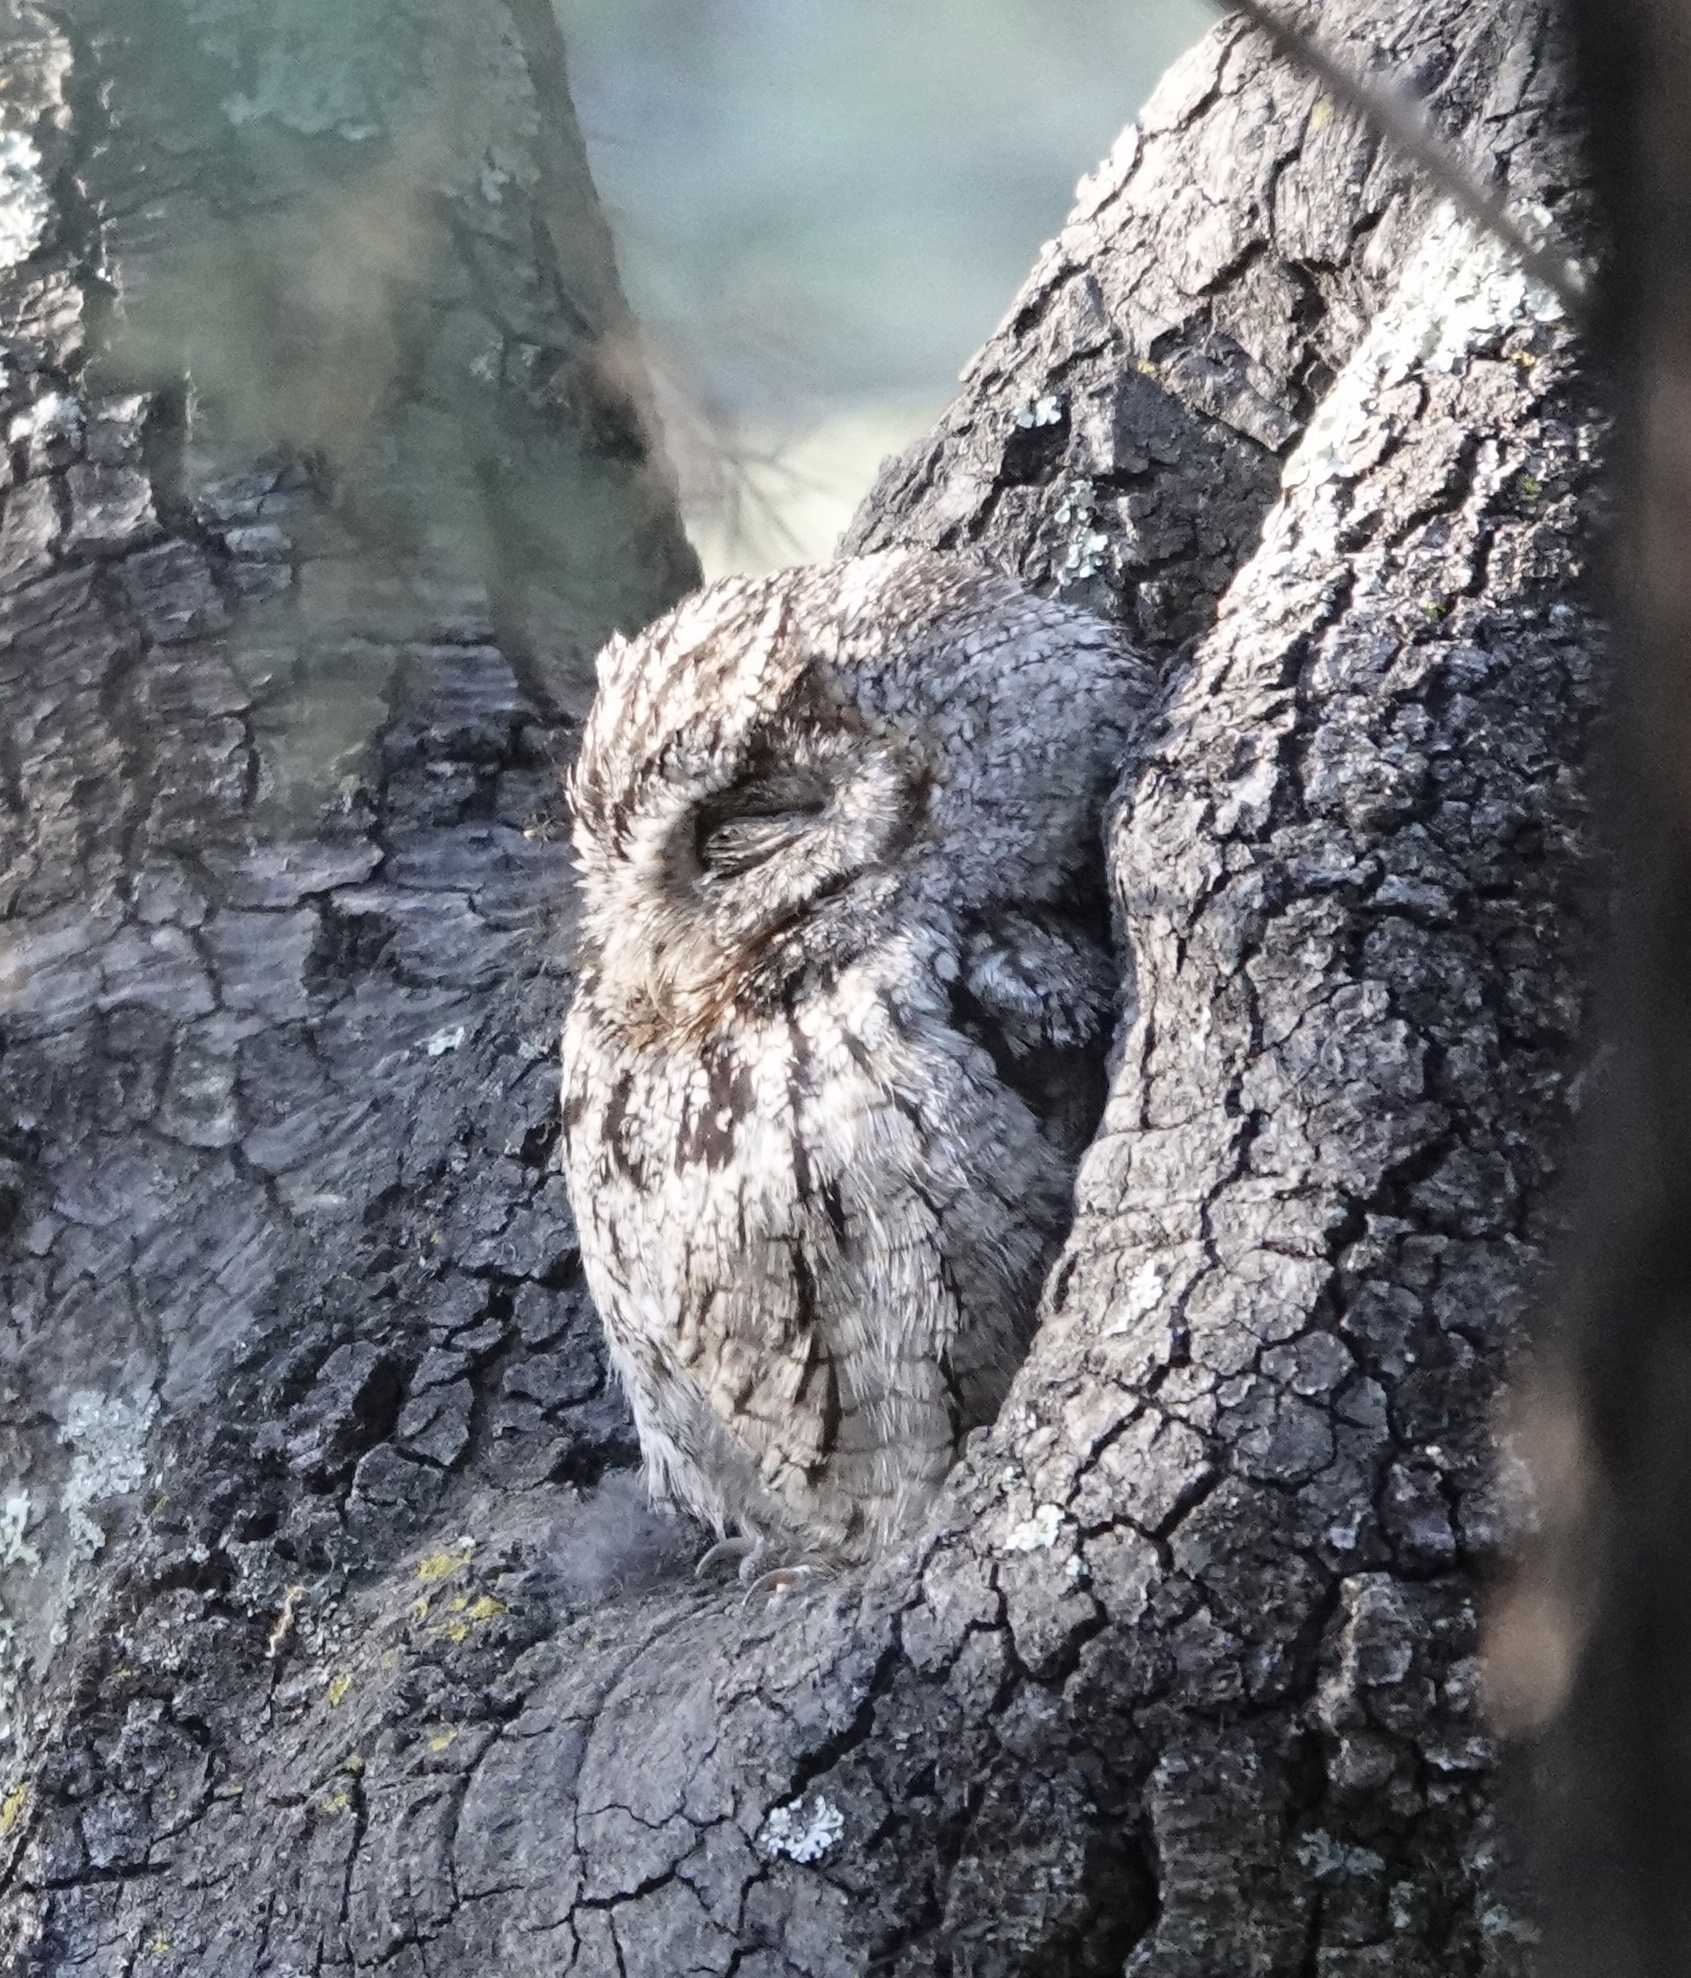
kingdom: Animalia
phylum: Chordata
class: Aves
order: Strigiformes
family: Strigidae
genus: Megascops
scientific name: Megascops trichopsis
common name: Whiskered screech-owl
